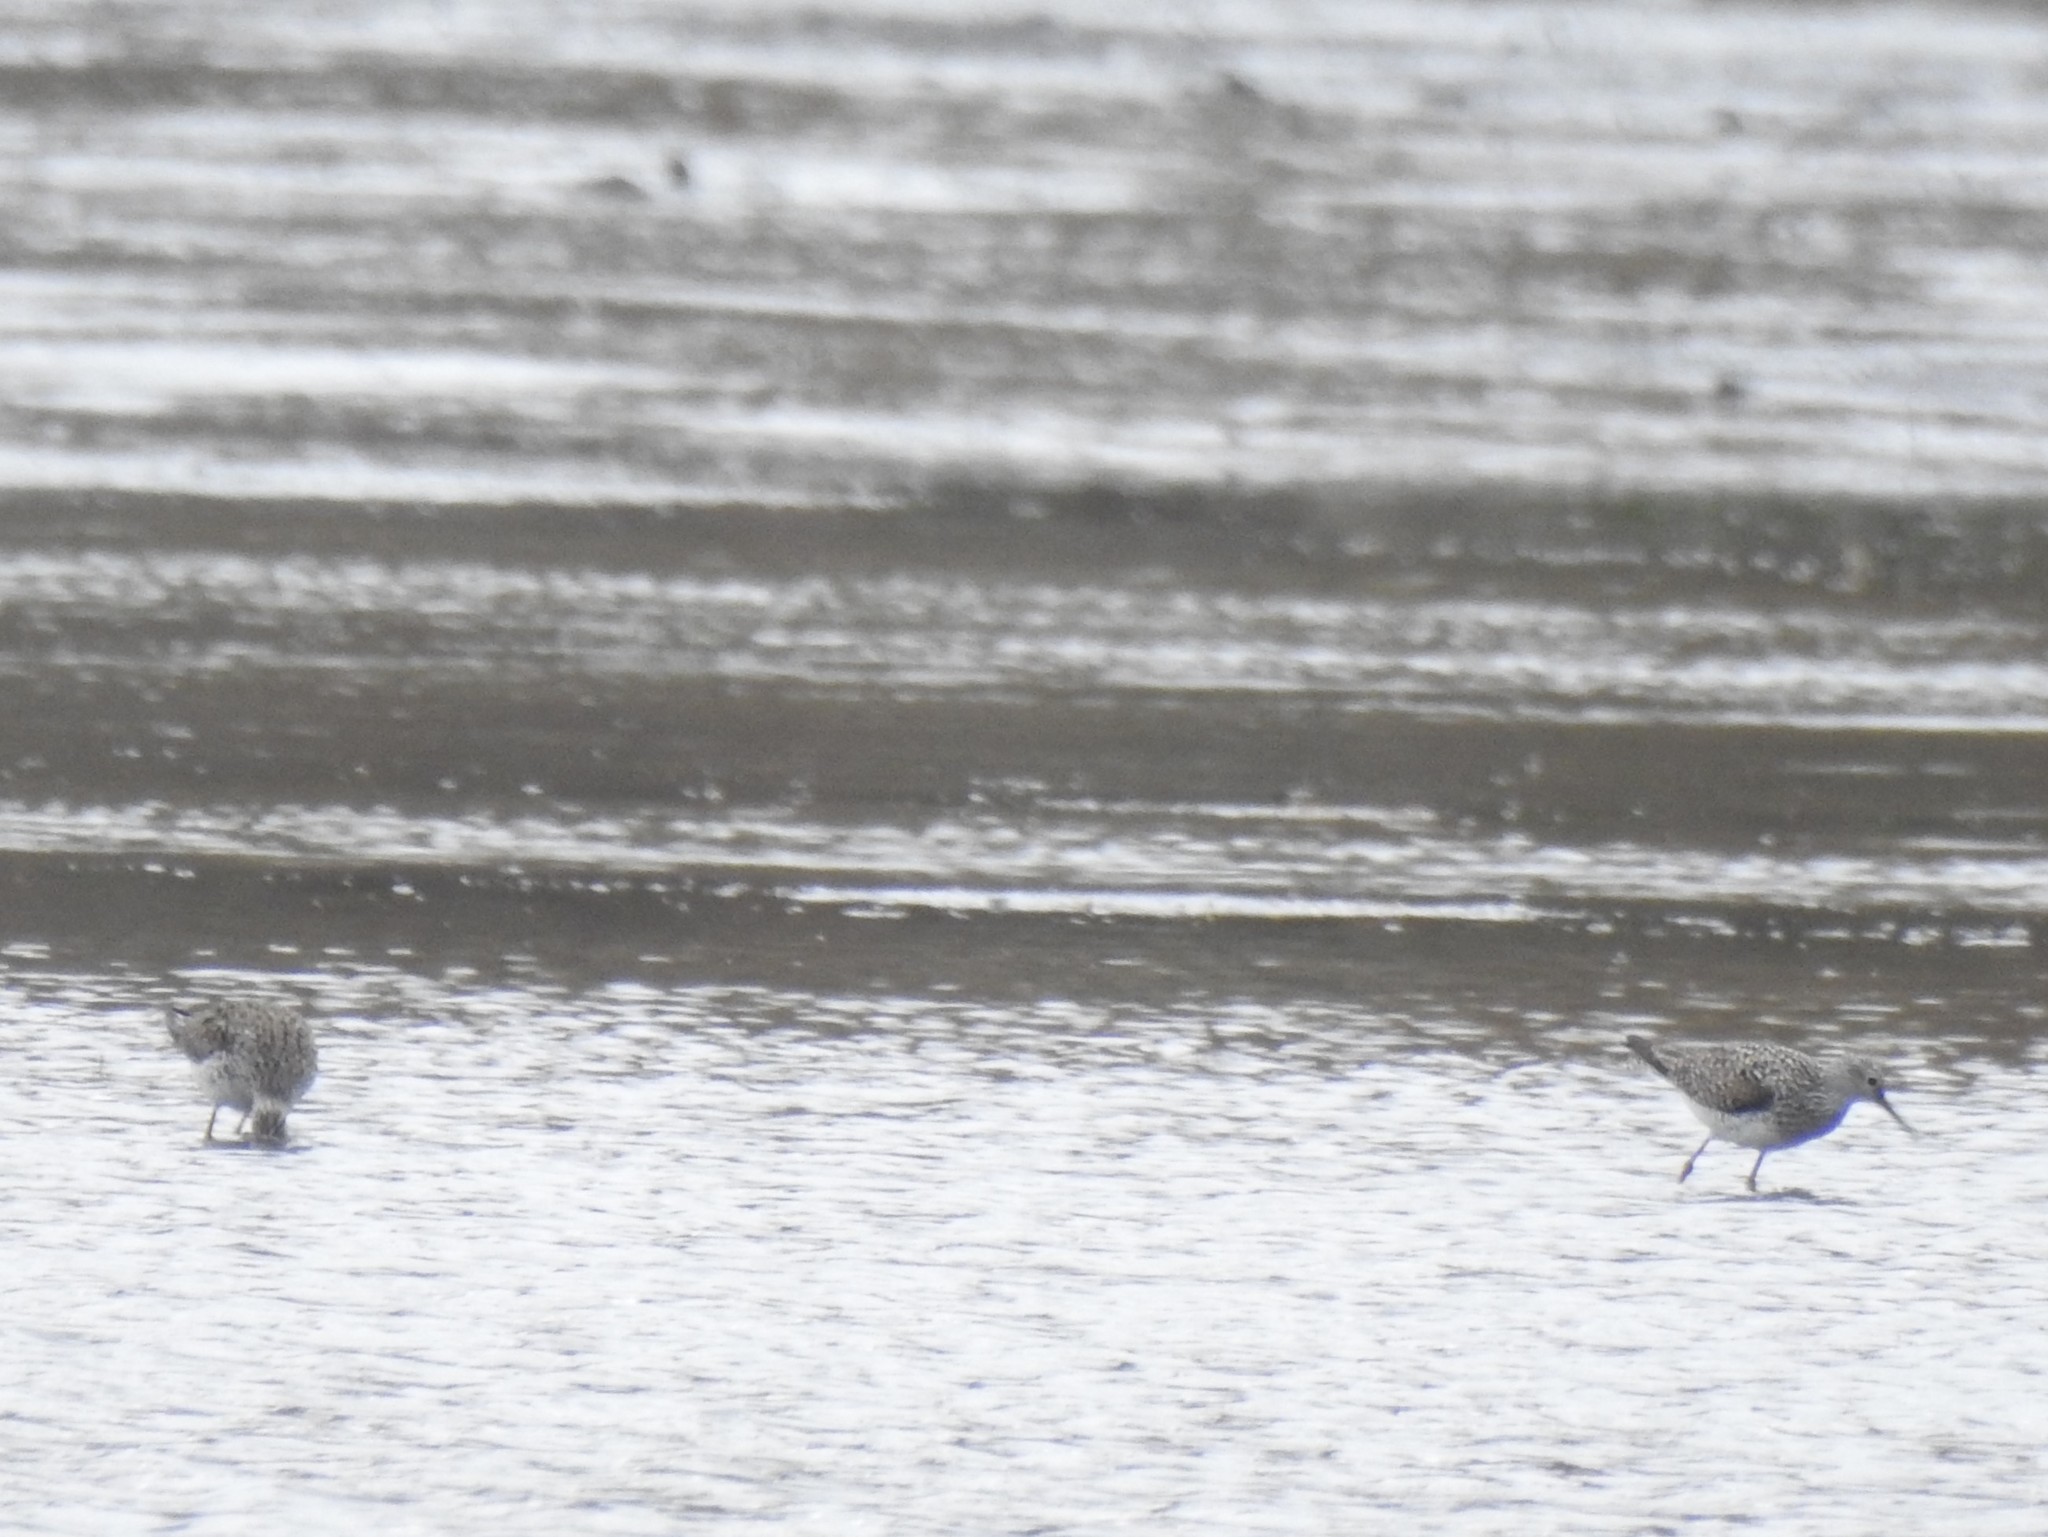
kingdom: Animalia
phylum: Chordata
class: Aves
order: Charadriiformes
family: Scolopacidae
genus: Tringa
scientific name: Tringa flavipes
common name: Lesser yellowlegs
